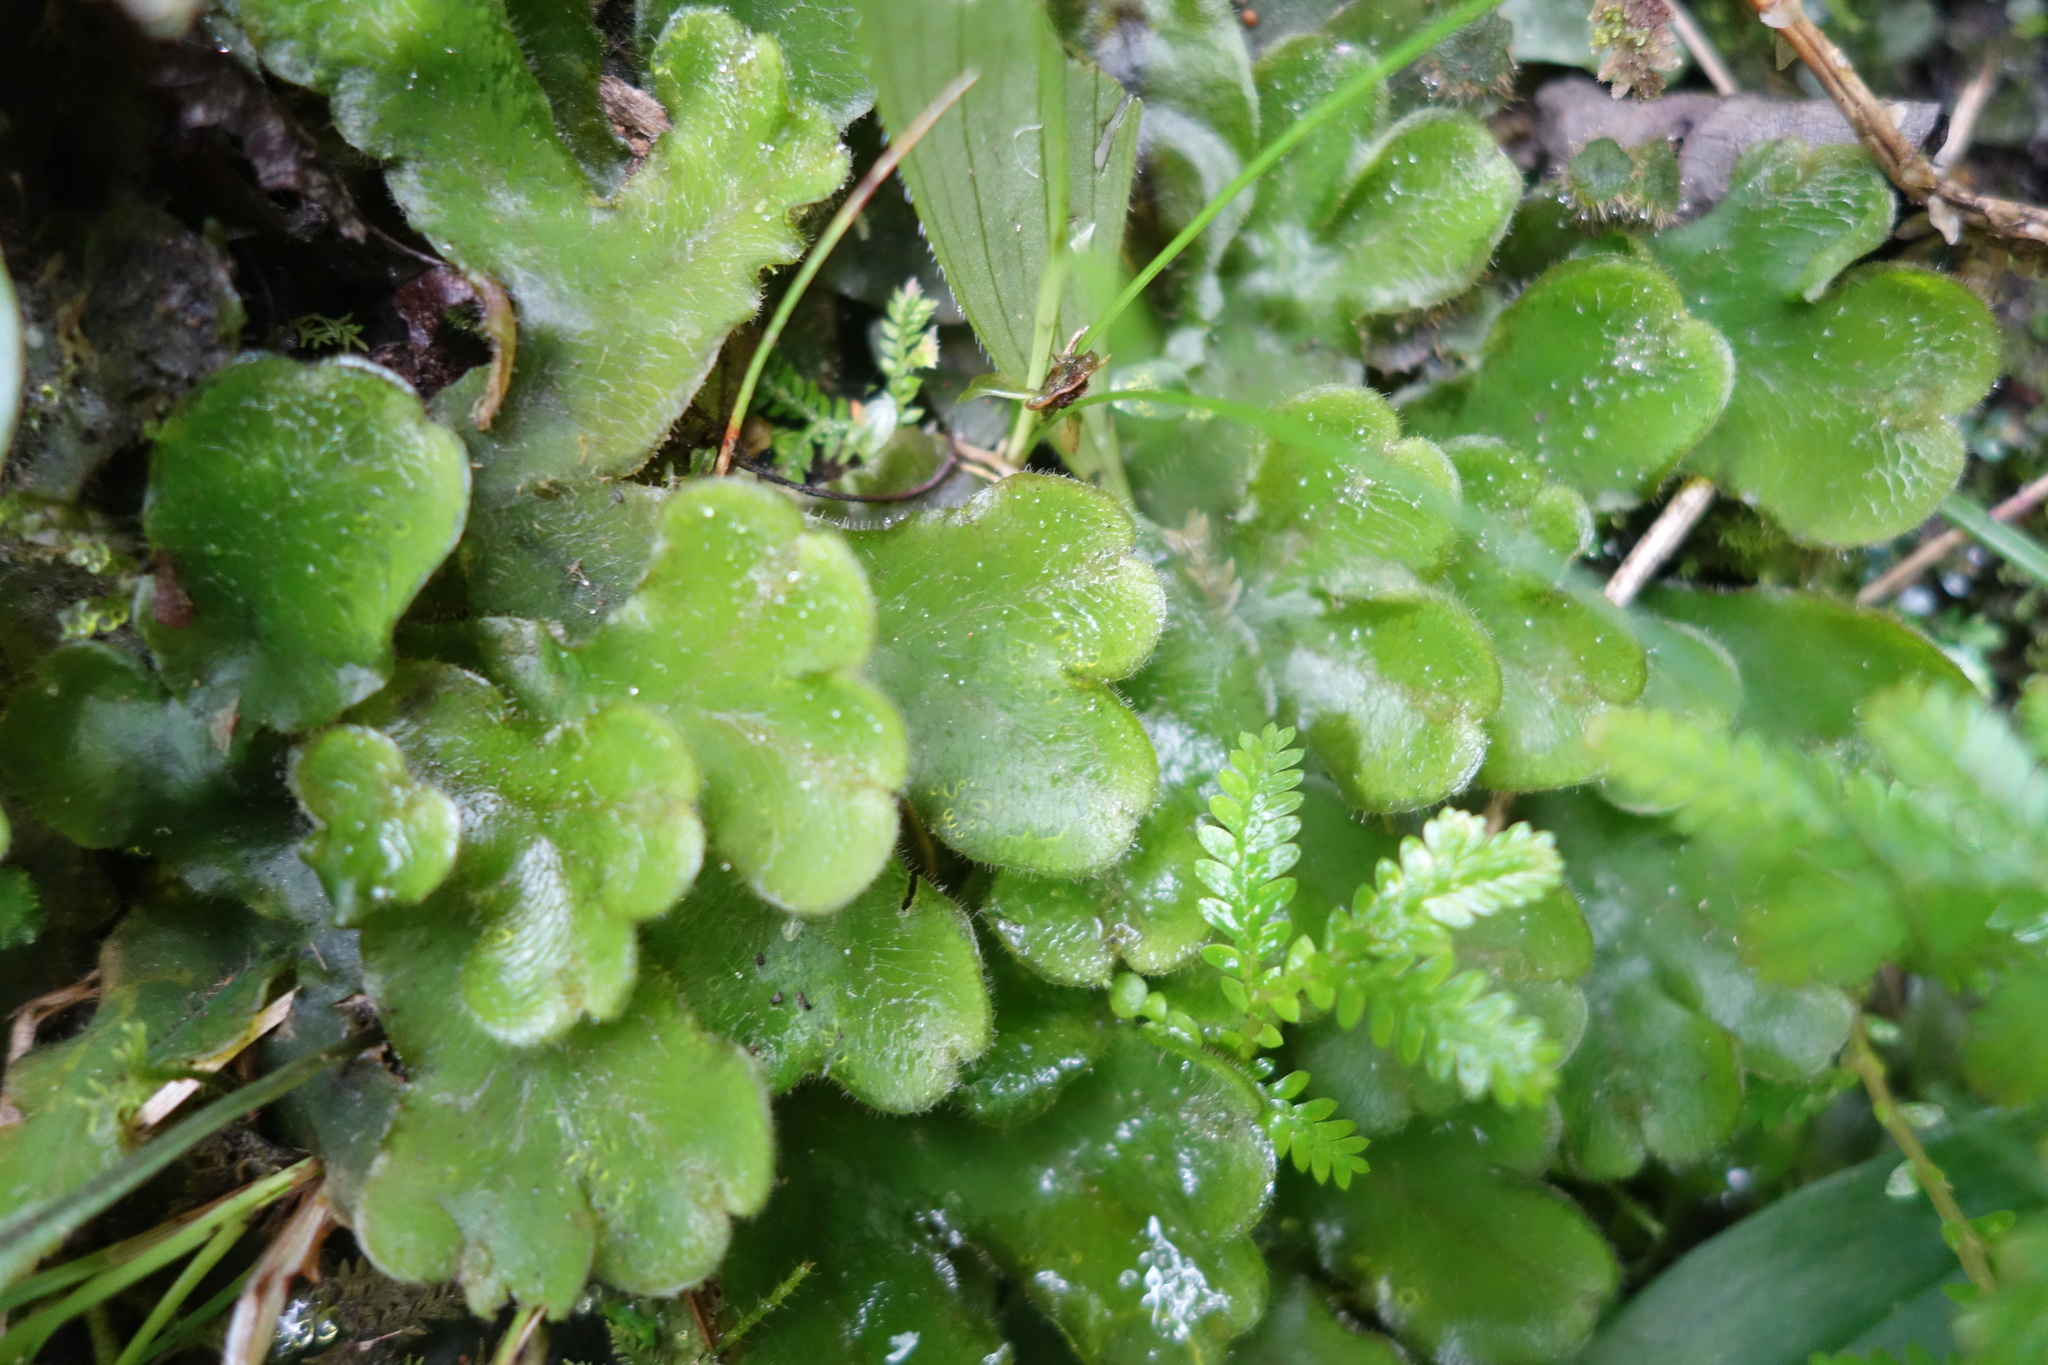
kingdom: Plantae
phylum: Marchantiophyta
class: Marchantiopsida
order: Marchantiales
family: Dumortieraceae
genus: Dumortiera
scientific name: Dumortiera hirsuta
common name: Dumortier's liverwort
